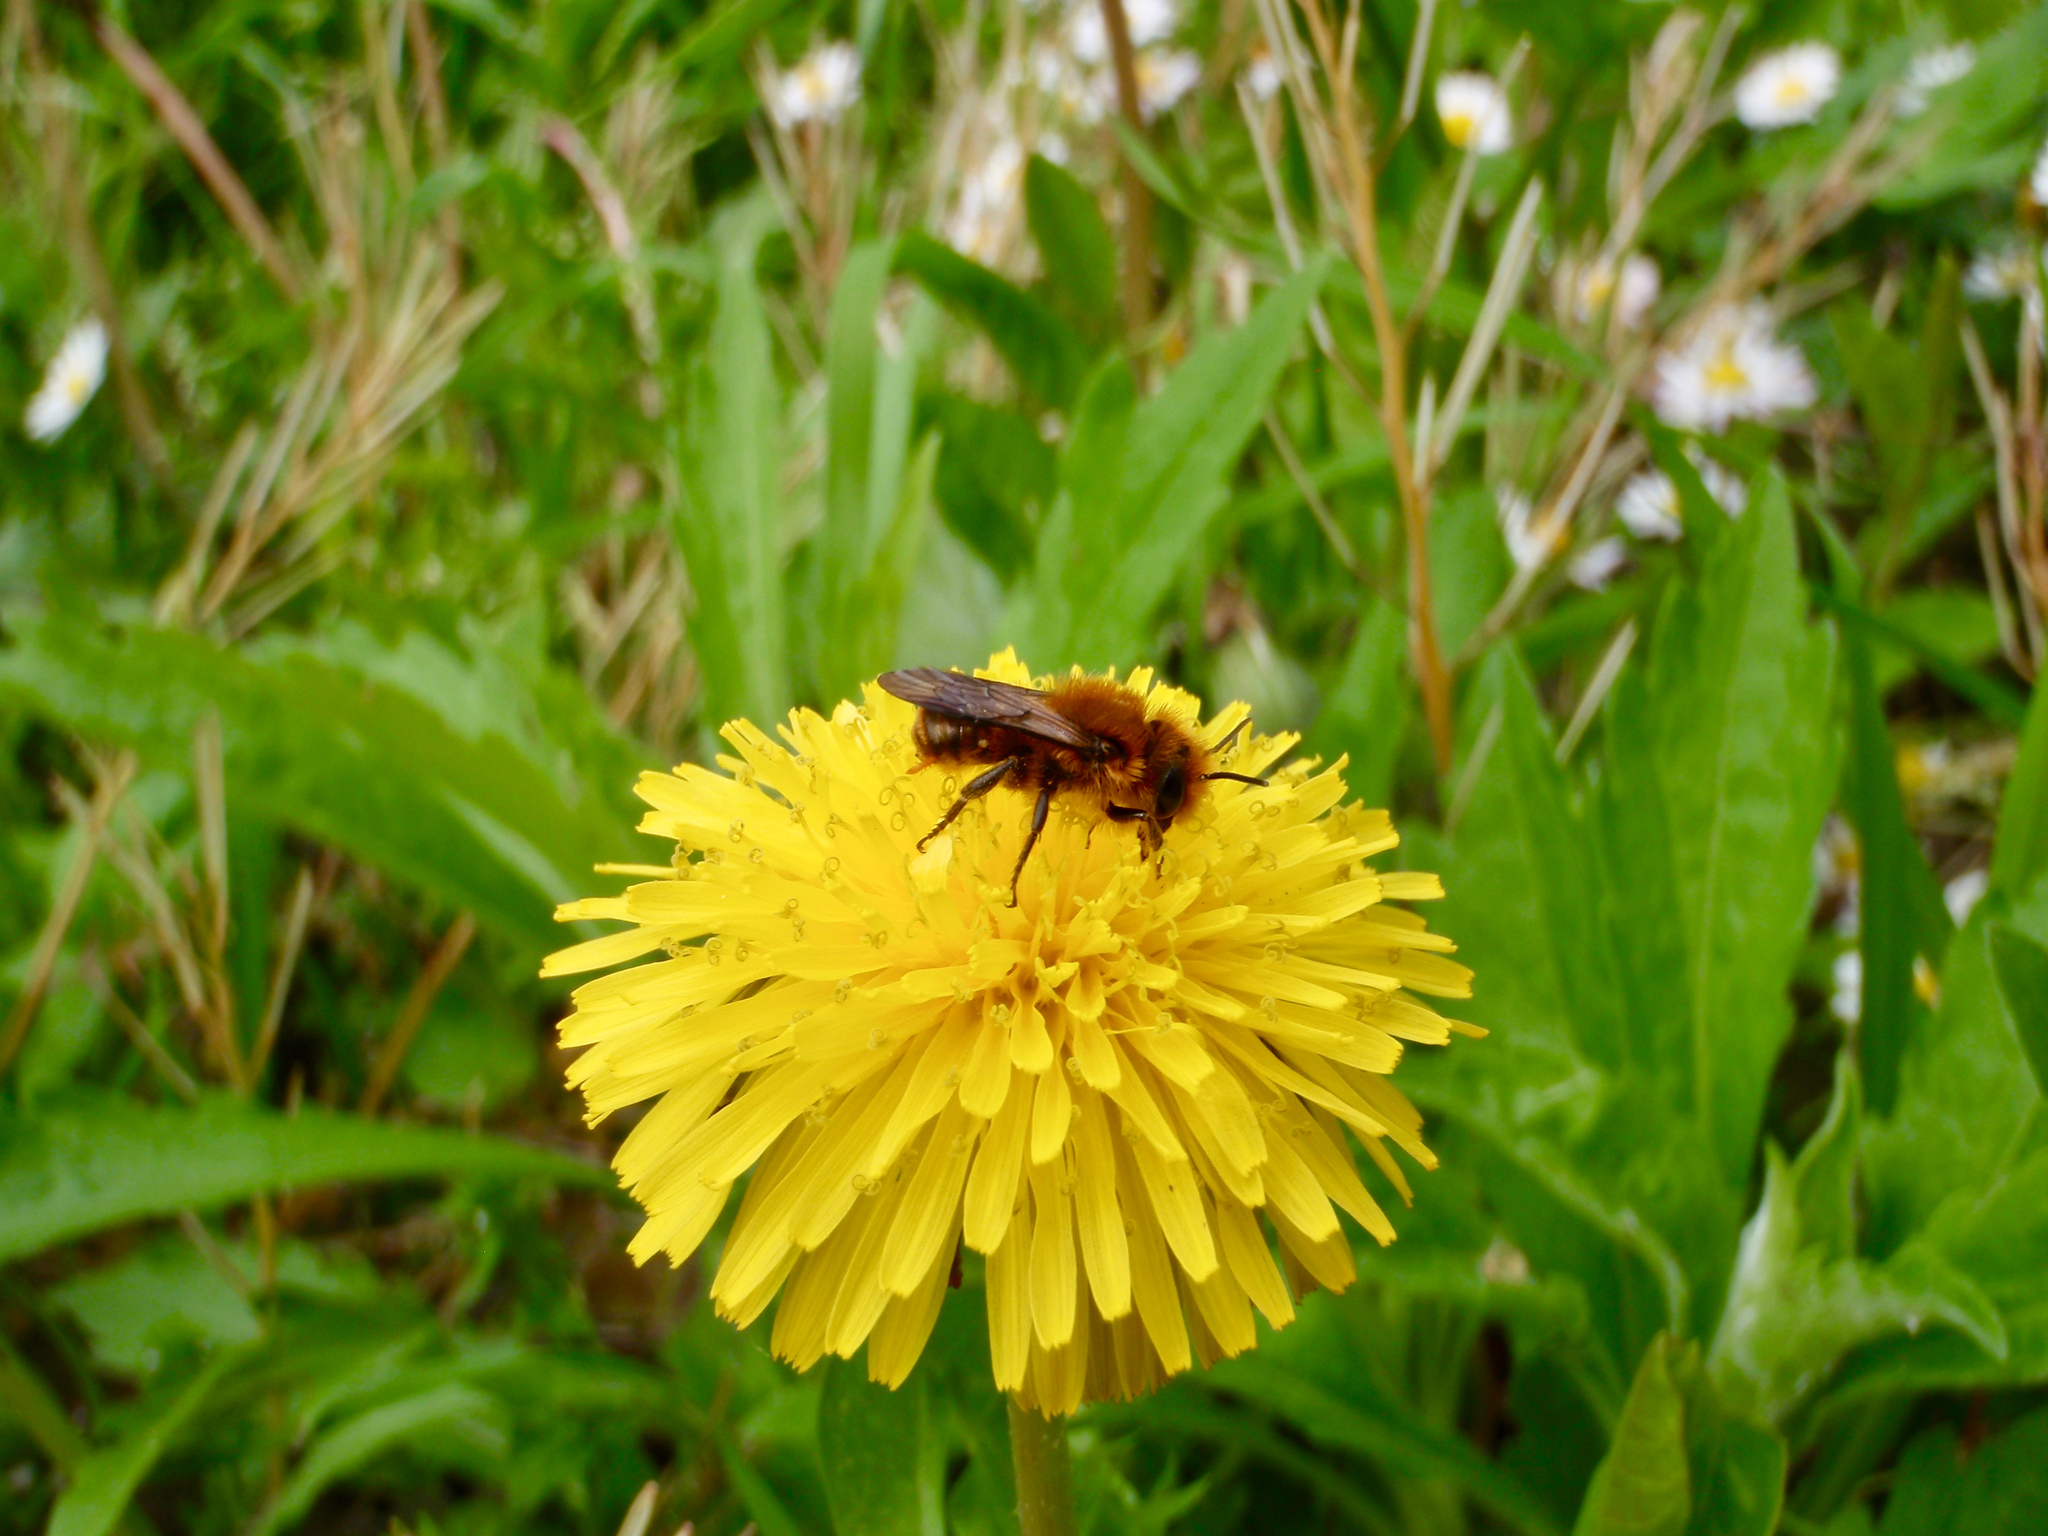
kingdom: Animalia
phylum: Arthropoda
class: Insecta
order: Hymenoptera
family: Megachilidae
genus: Osmia
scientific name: Osmia
